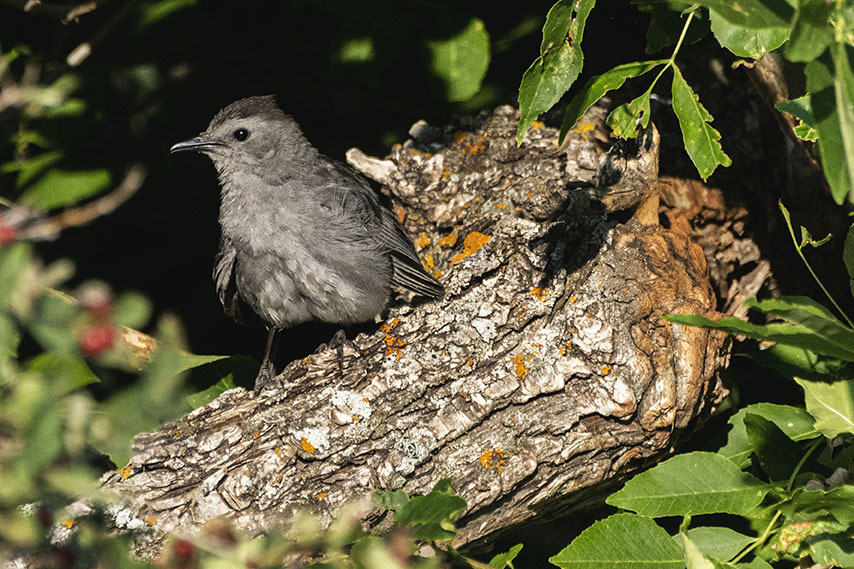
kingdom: Animalia
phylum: Chordata
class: Aves
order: Passeriformes
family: Mimidae
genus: Dumetella
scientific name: Dumetella carolinensis
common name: Gray catbird
